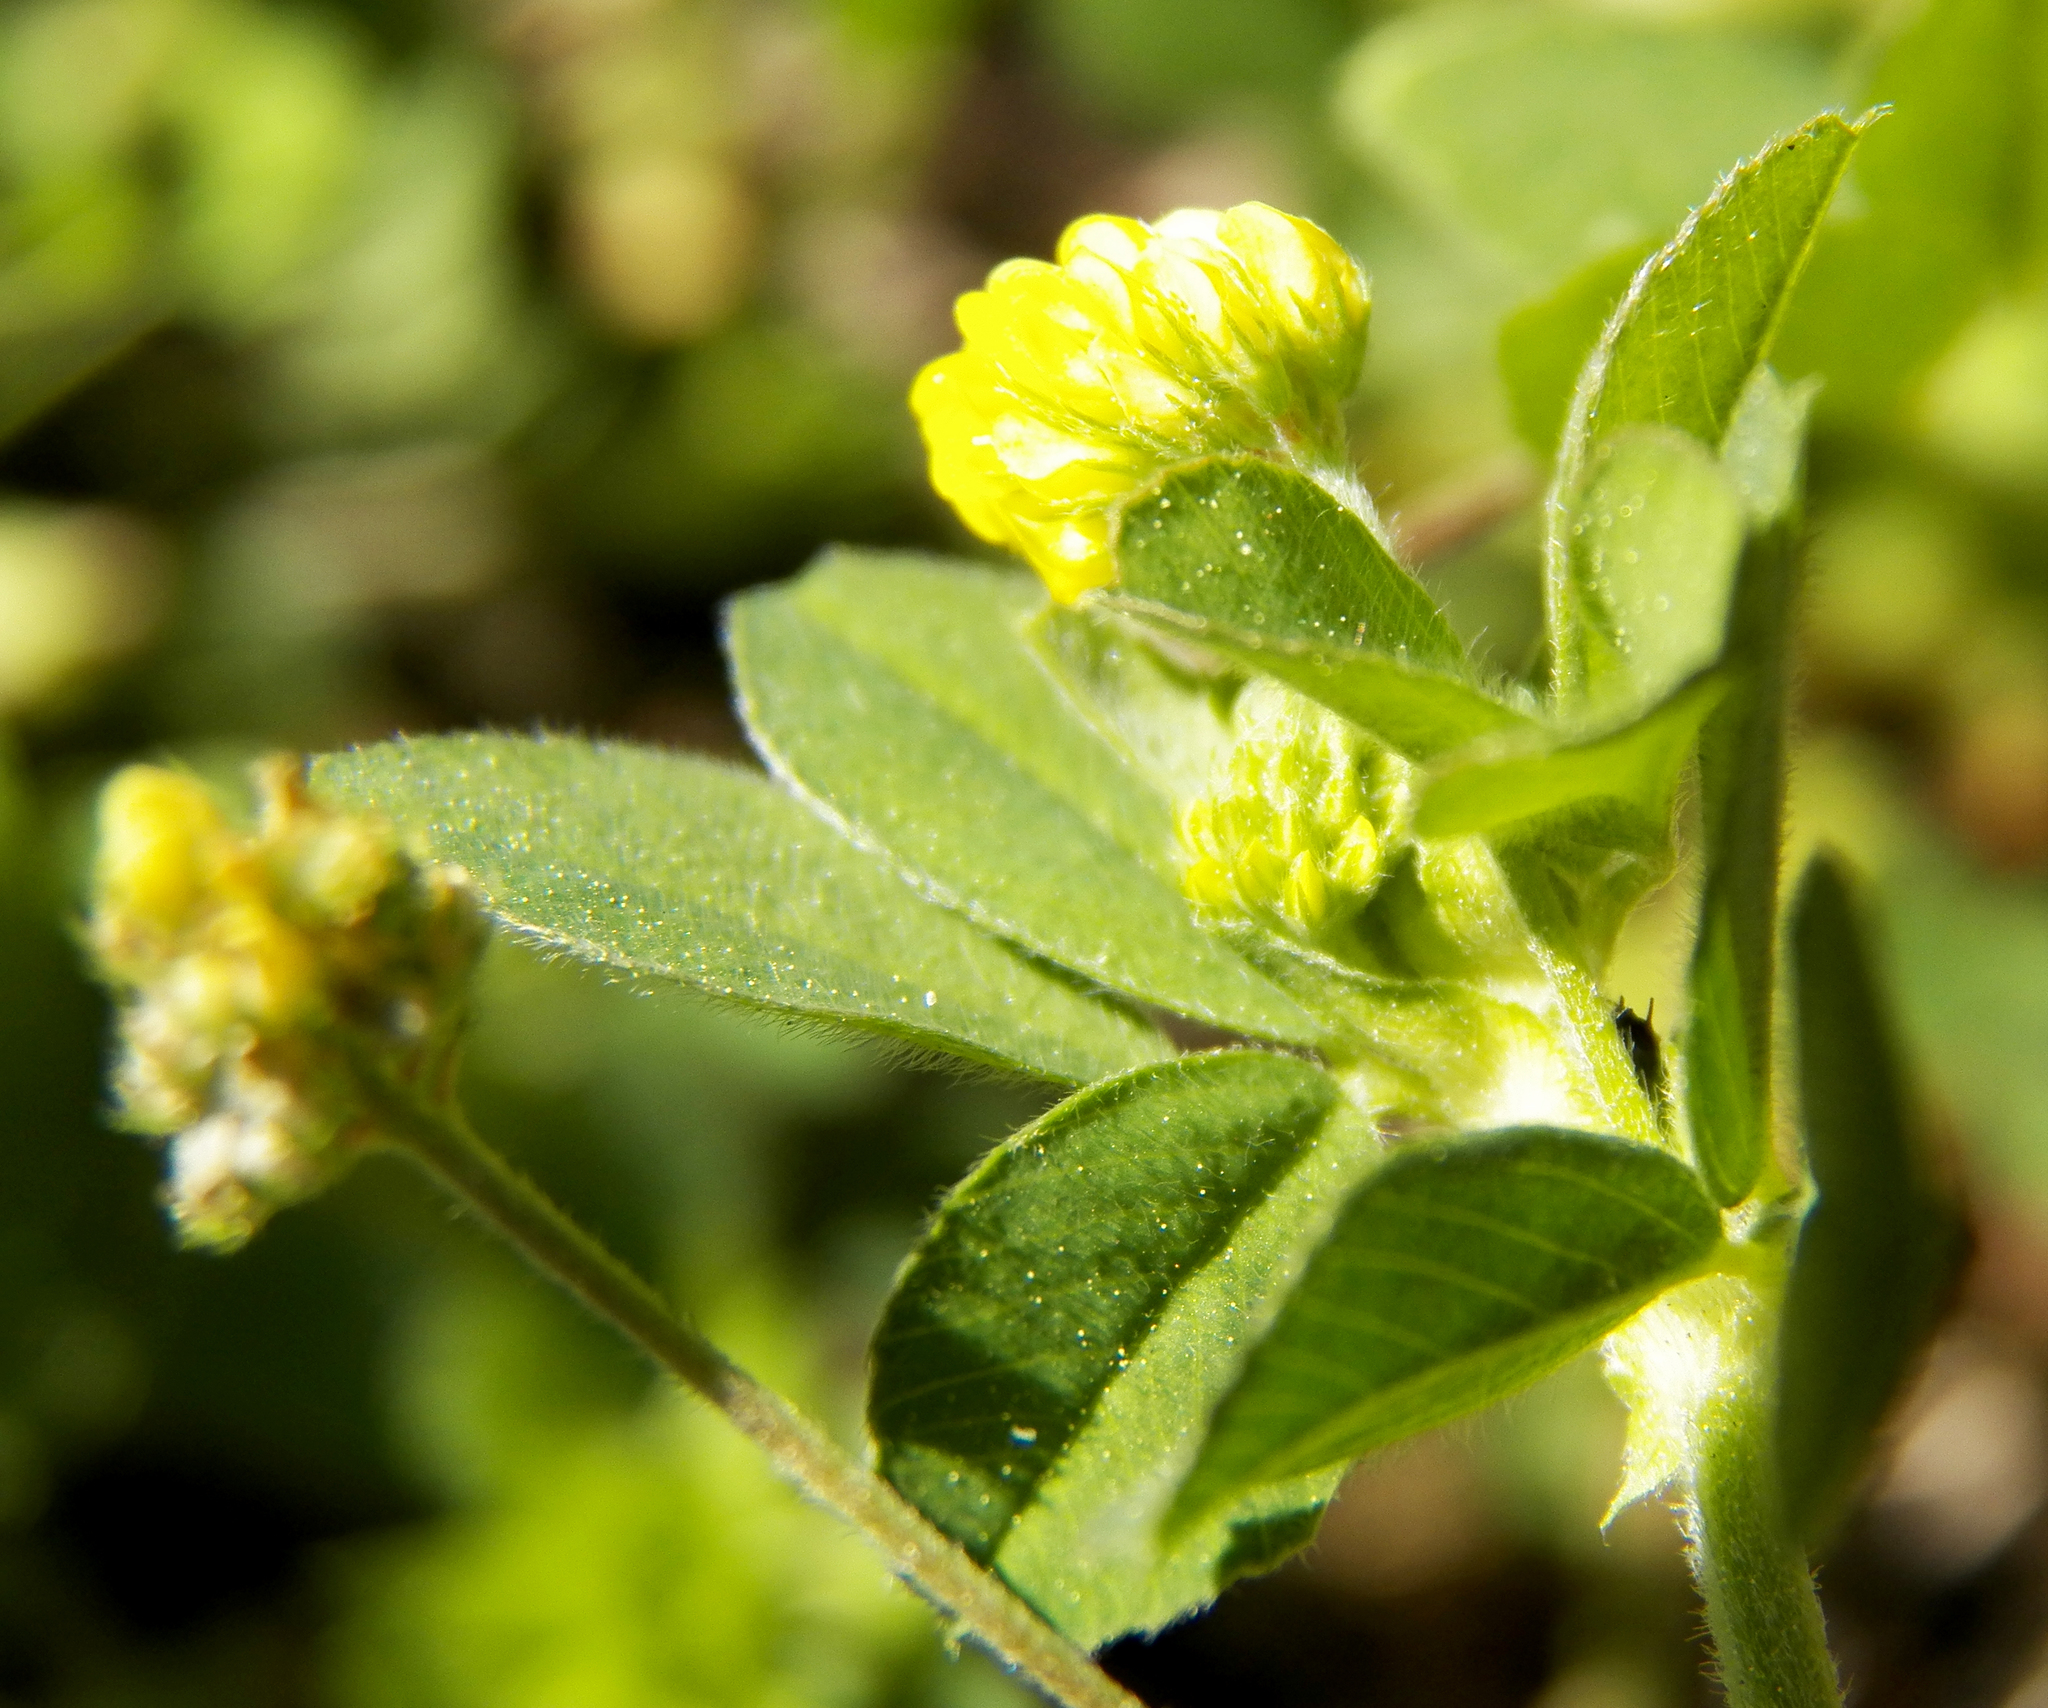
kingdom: Plantae
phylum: Tracheophyta
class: Magnoliopsida
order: Fabales
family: Fabaceae
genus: Medicago
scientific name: Medicago lupulina
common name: Black medick
